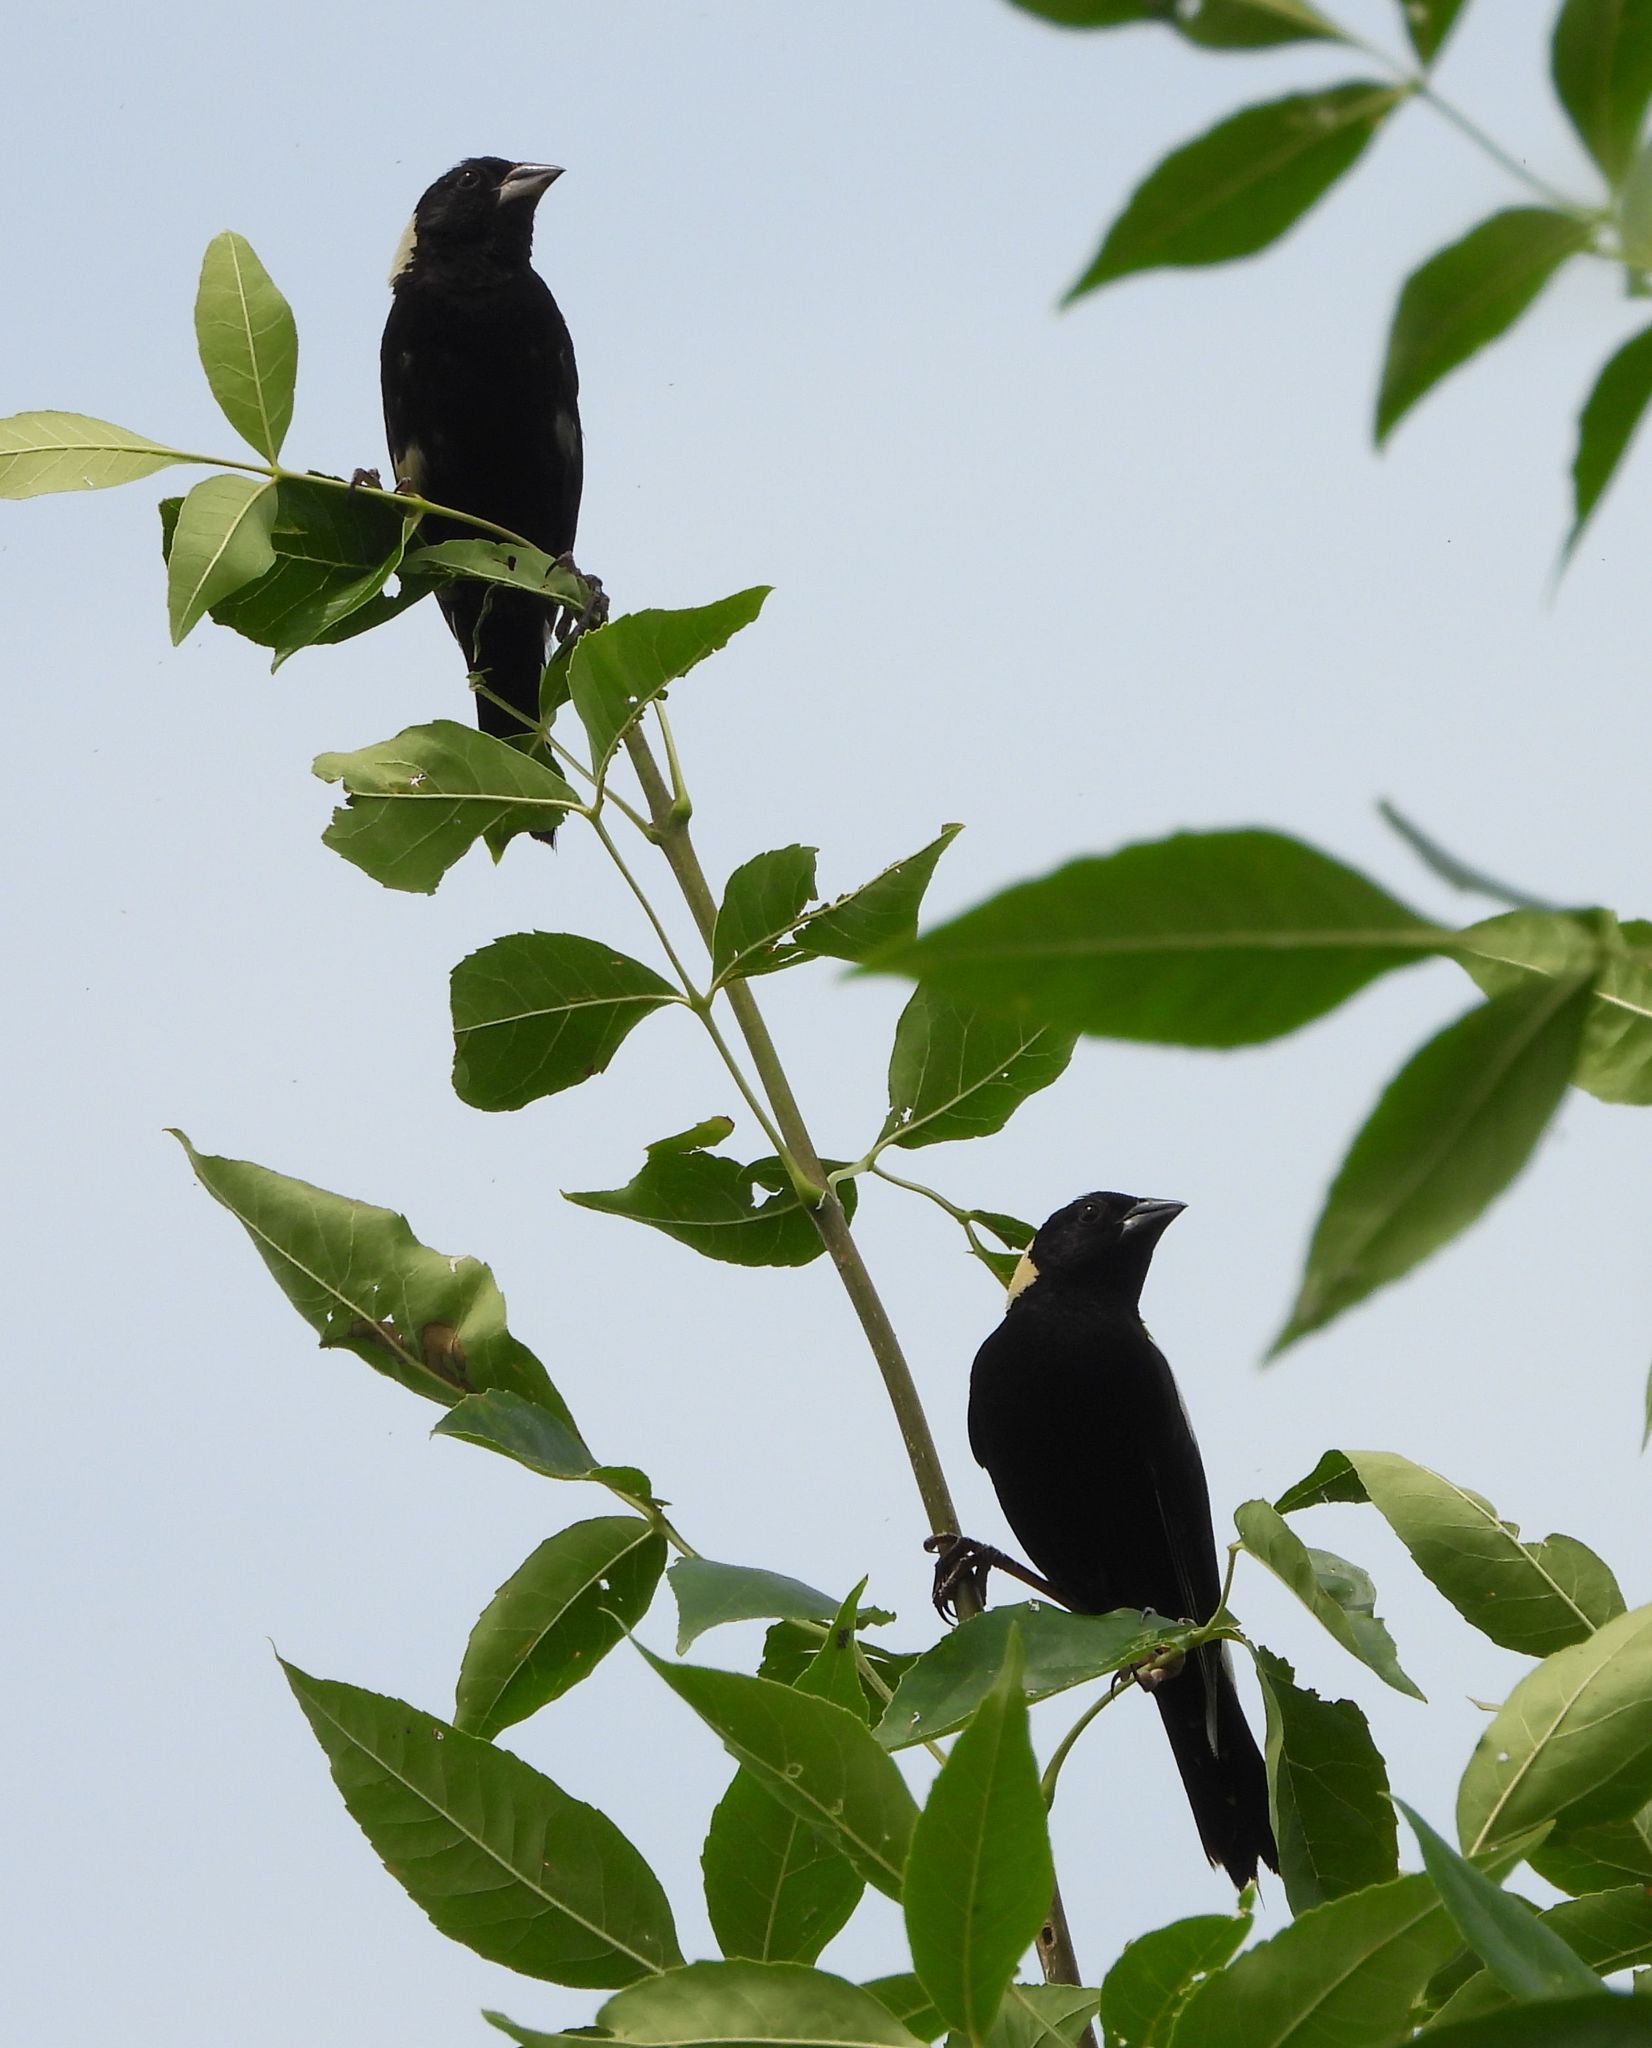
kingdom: Animalia
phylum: Chordata
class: Aves
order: Passeriformes
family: Icteridae
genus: Dolichonyx
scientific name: Dolichonyx oryzivorus
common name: Bobolink
